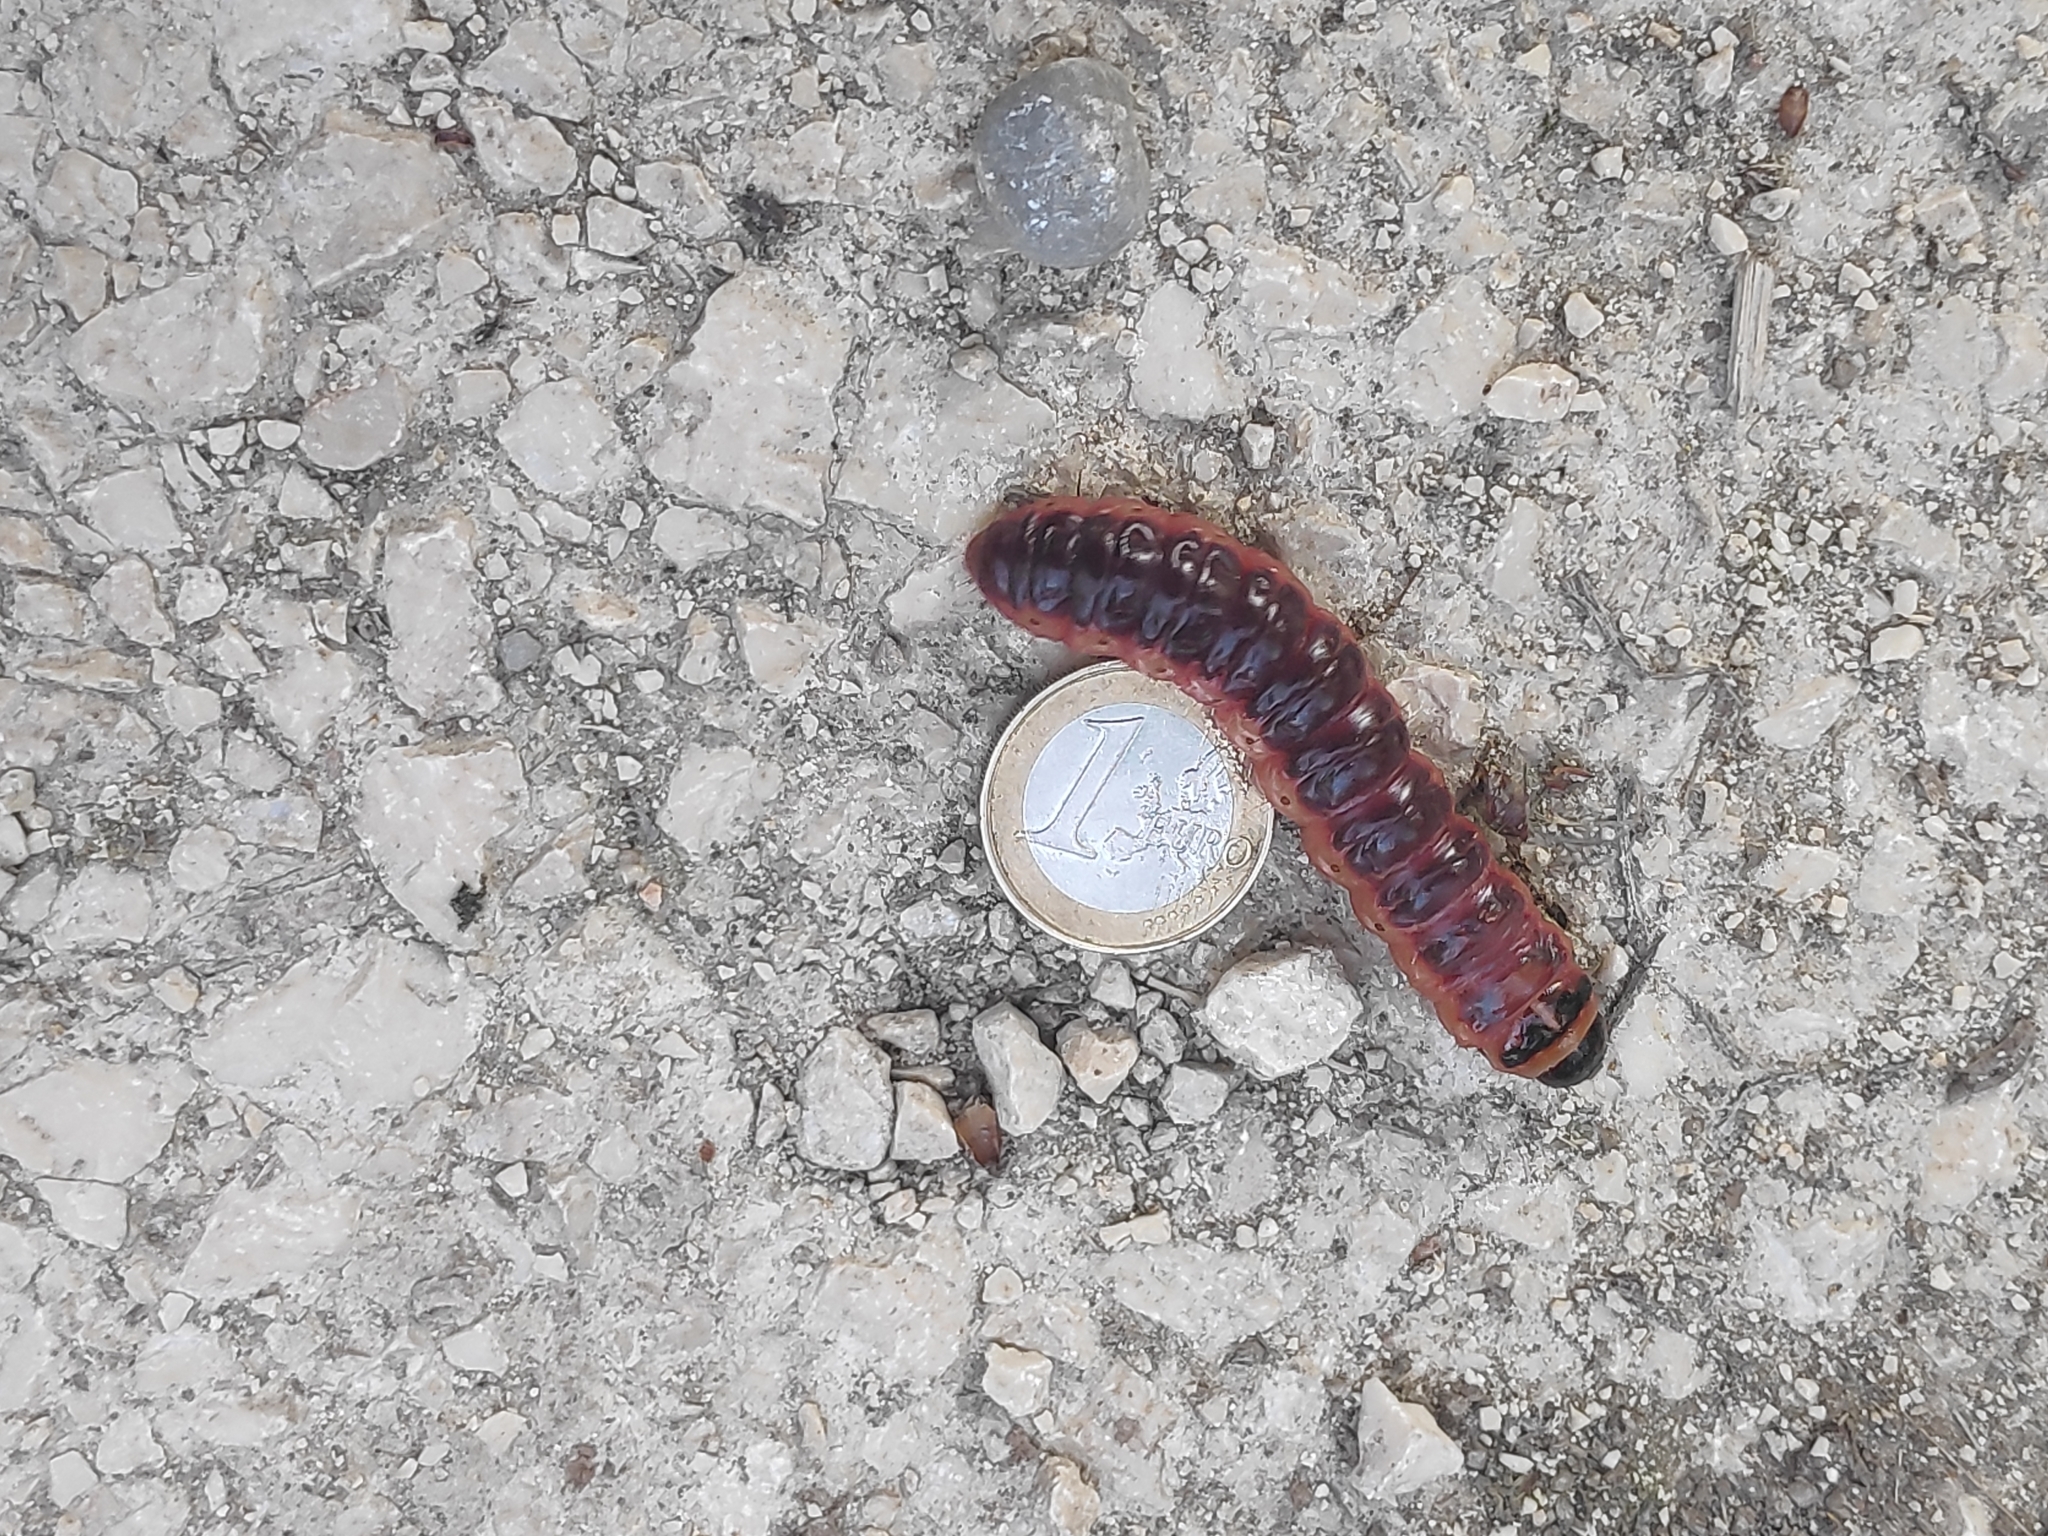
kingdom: Animalia
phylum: Arthropoda
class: Insecta
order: Lepidoptera
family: Cossidae
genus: Cossus
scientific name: Cossus cossus
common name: Goat moth
